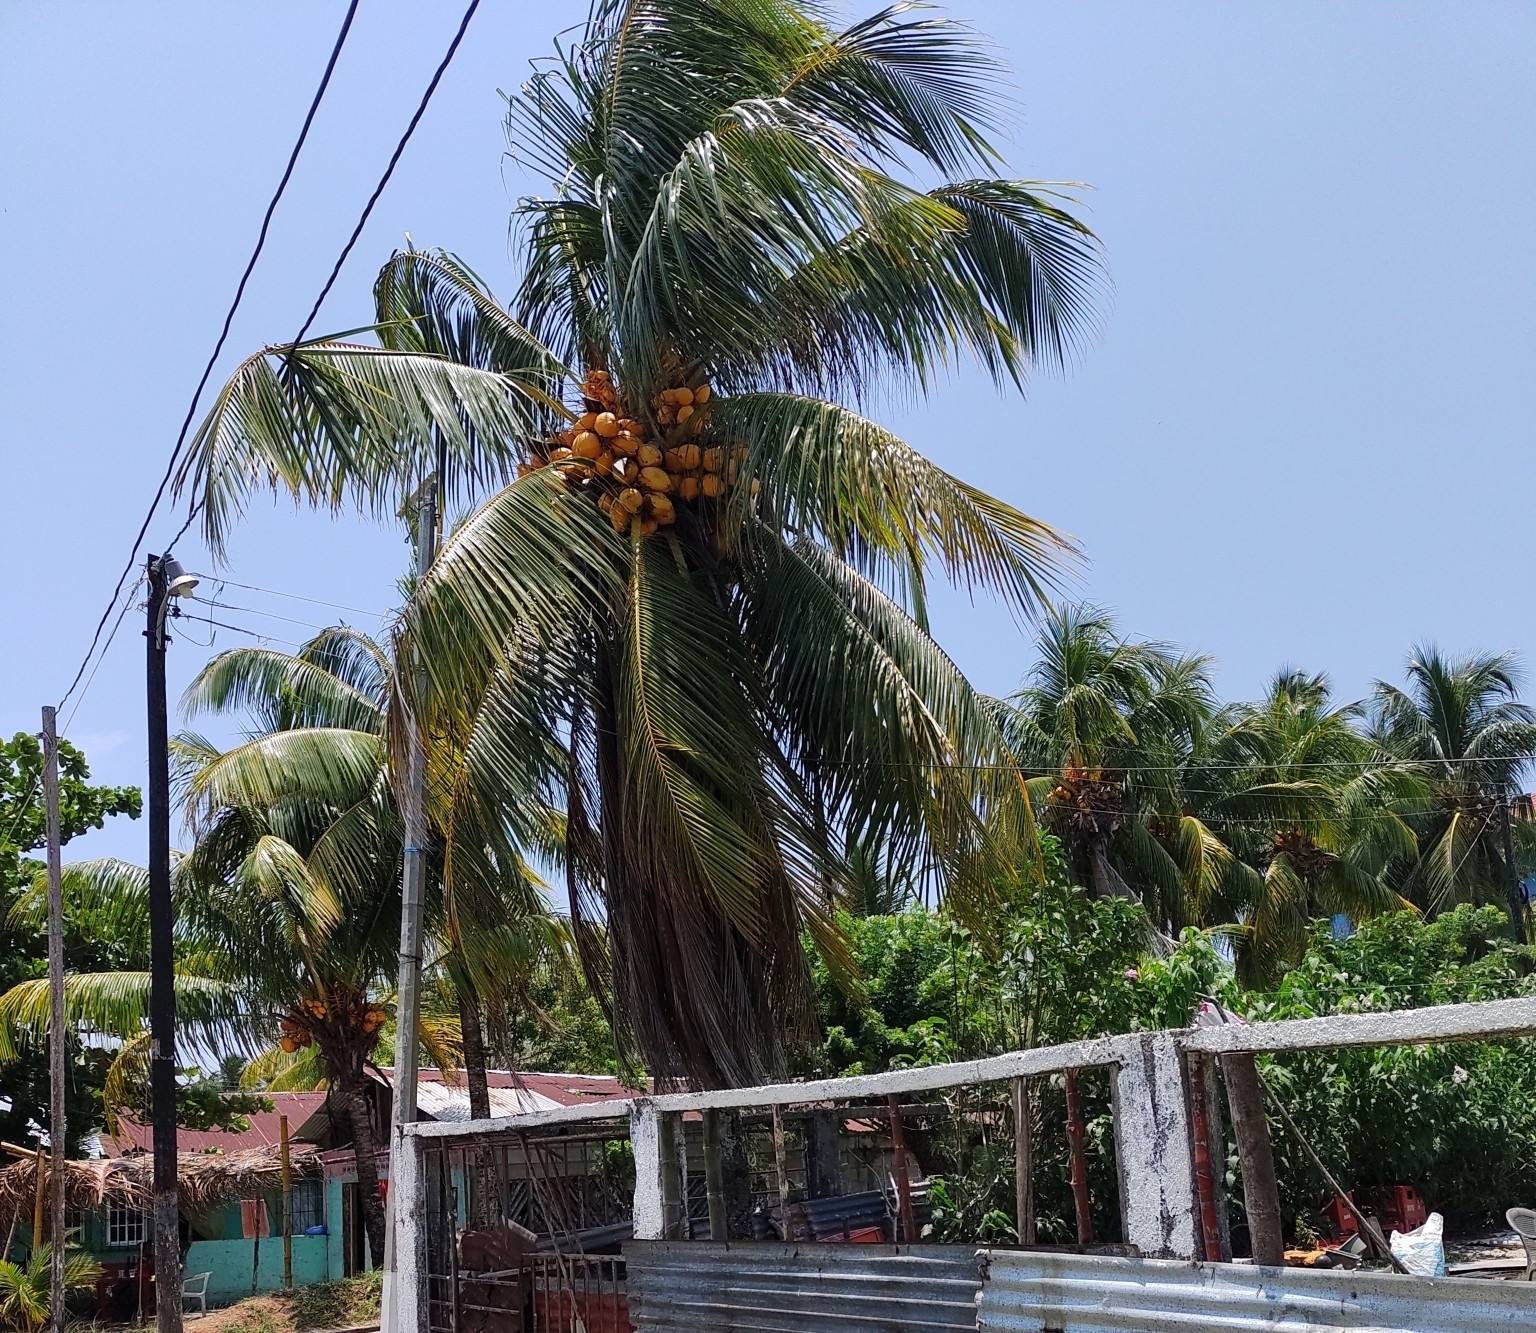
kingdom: Plantae
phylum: Tracheophyta
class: Liliopsida
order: Arecales
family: Arecaceae
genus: Cocos
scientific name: Cocos nucifera
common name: Coconut palm
